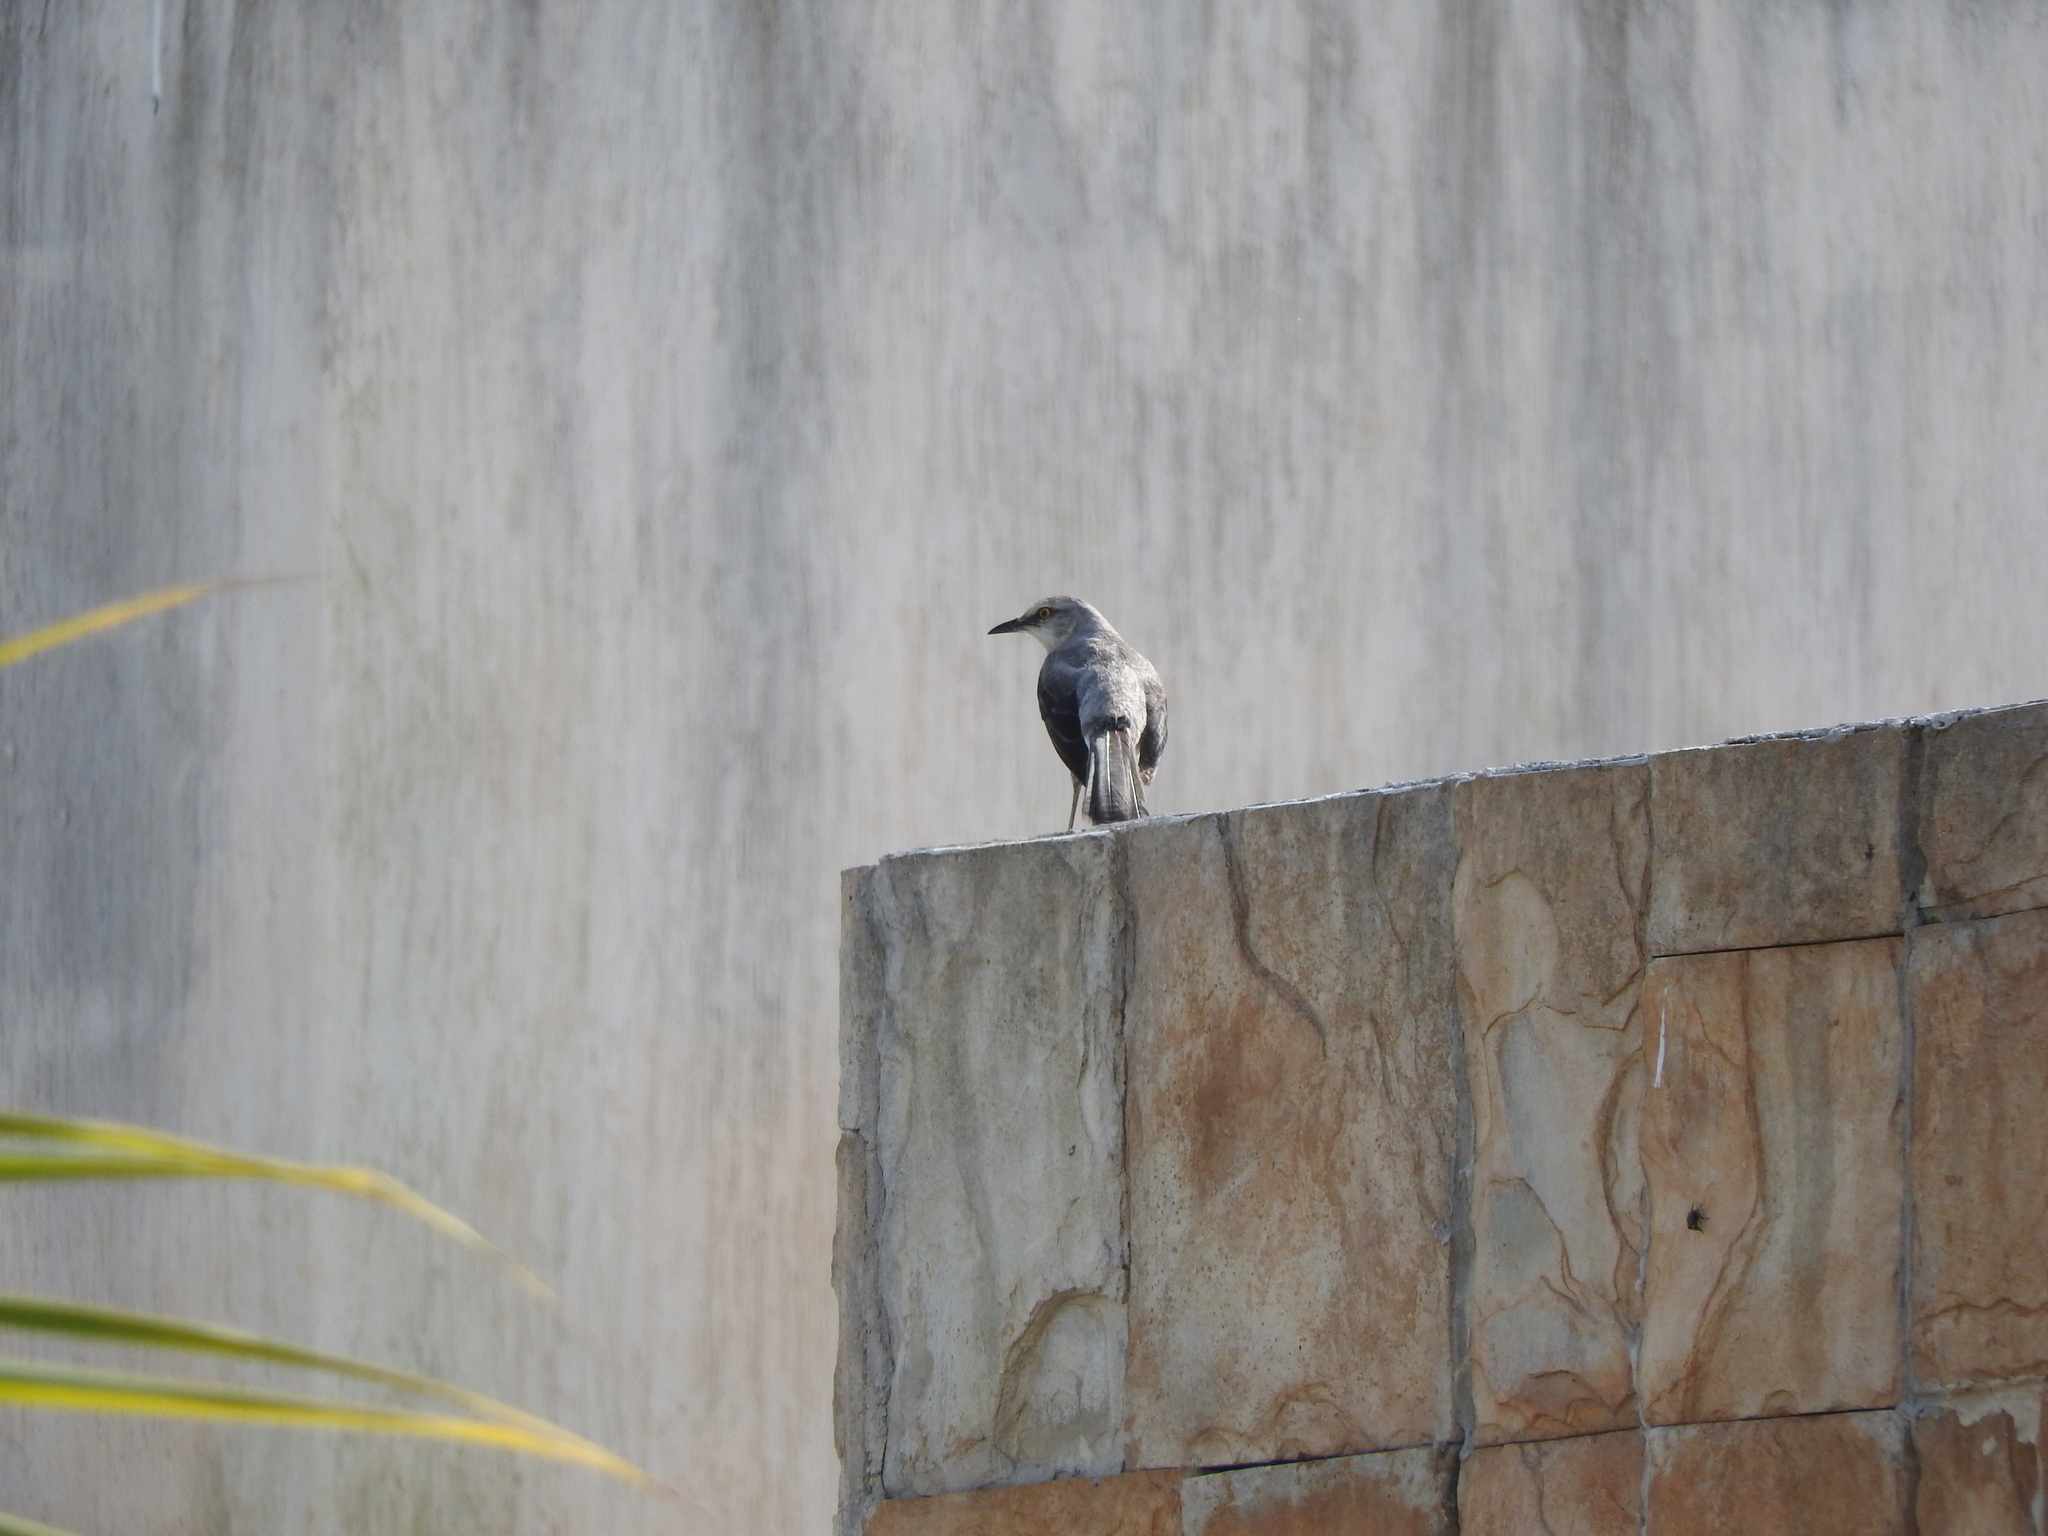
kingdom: Animalia
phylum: Chordata
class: Aves
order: Passeriformes
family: Mimidae
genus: Mimus
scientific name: Mimus gilvus
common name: Tropical mockingbird
